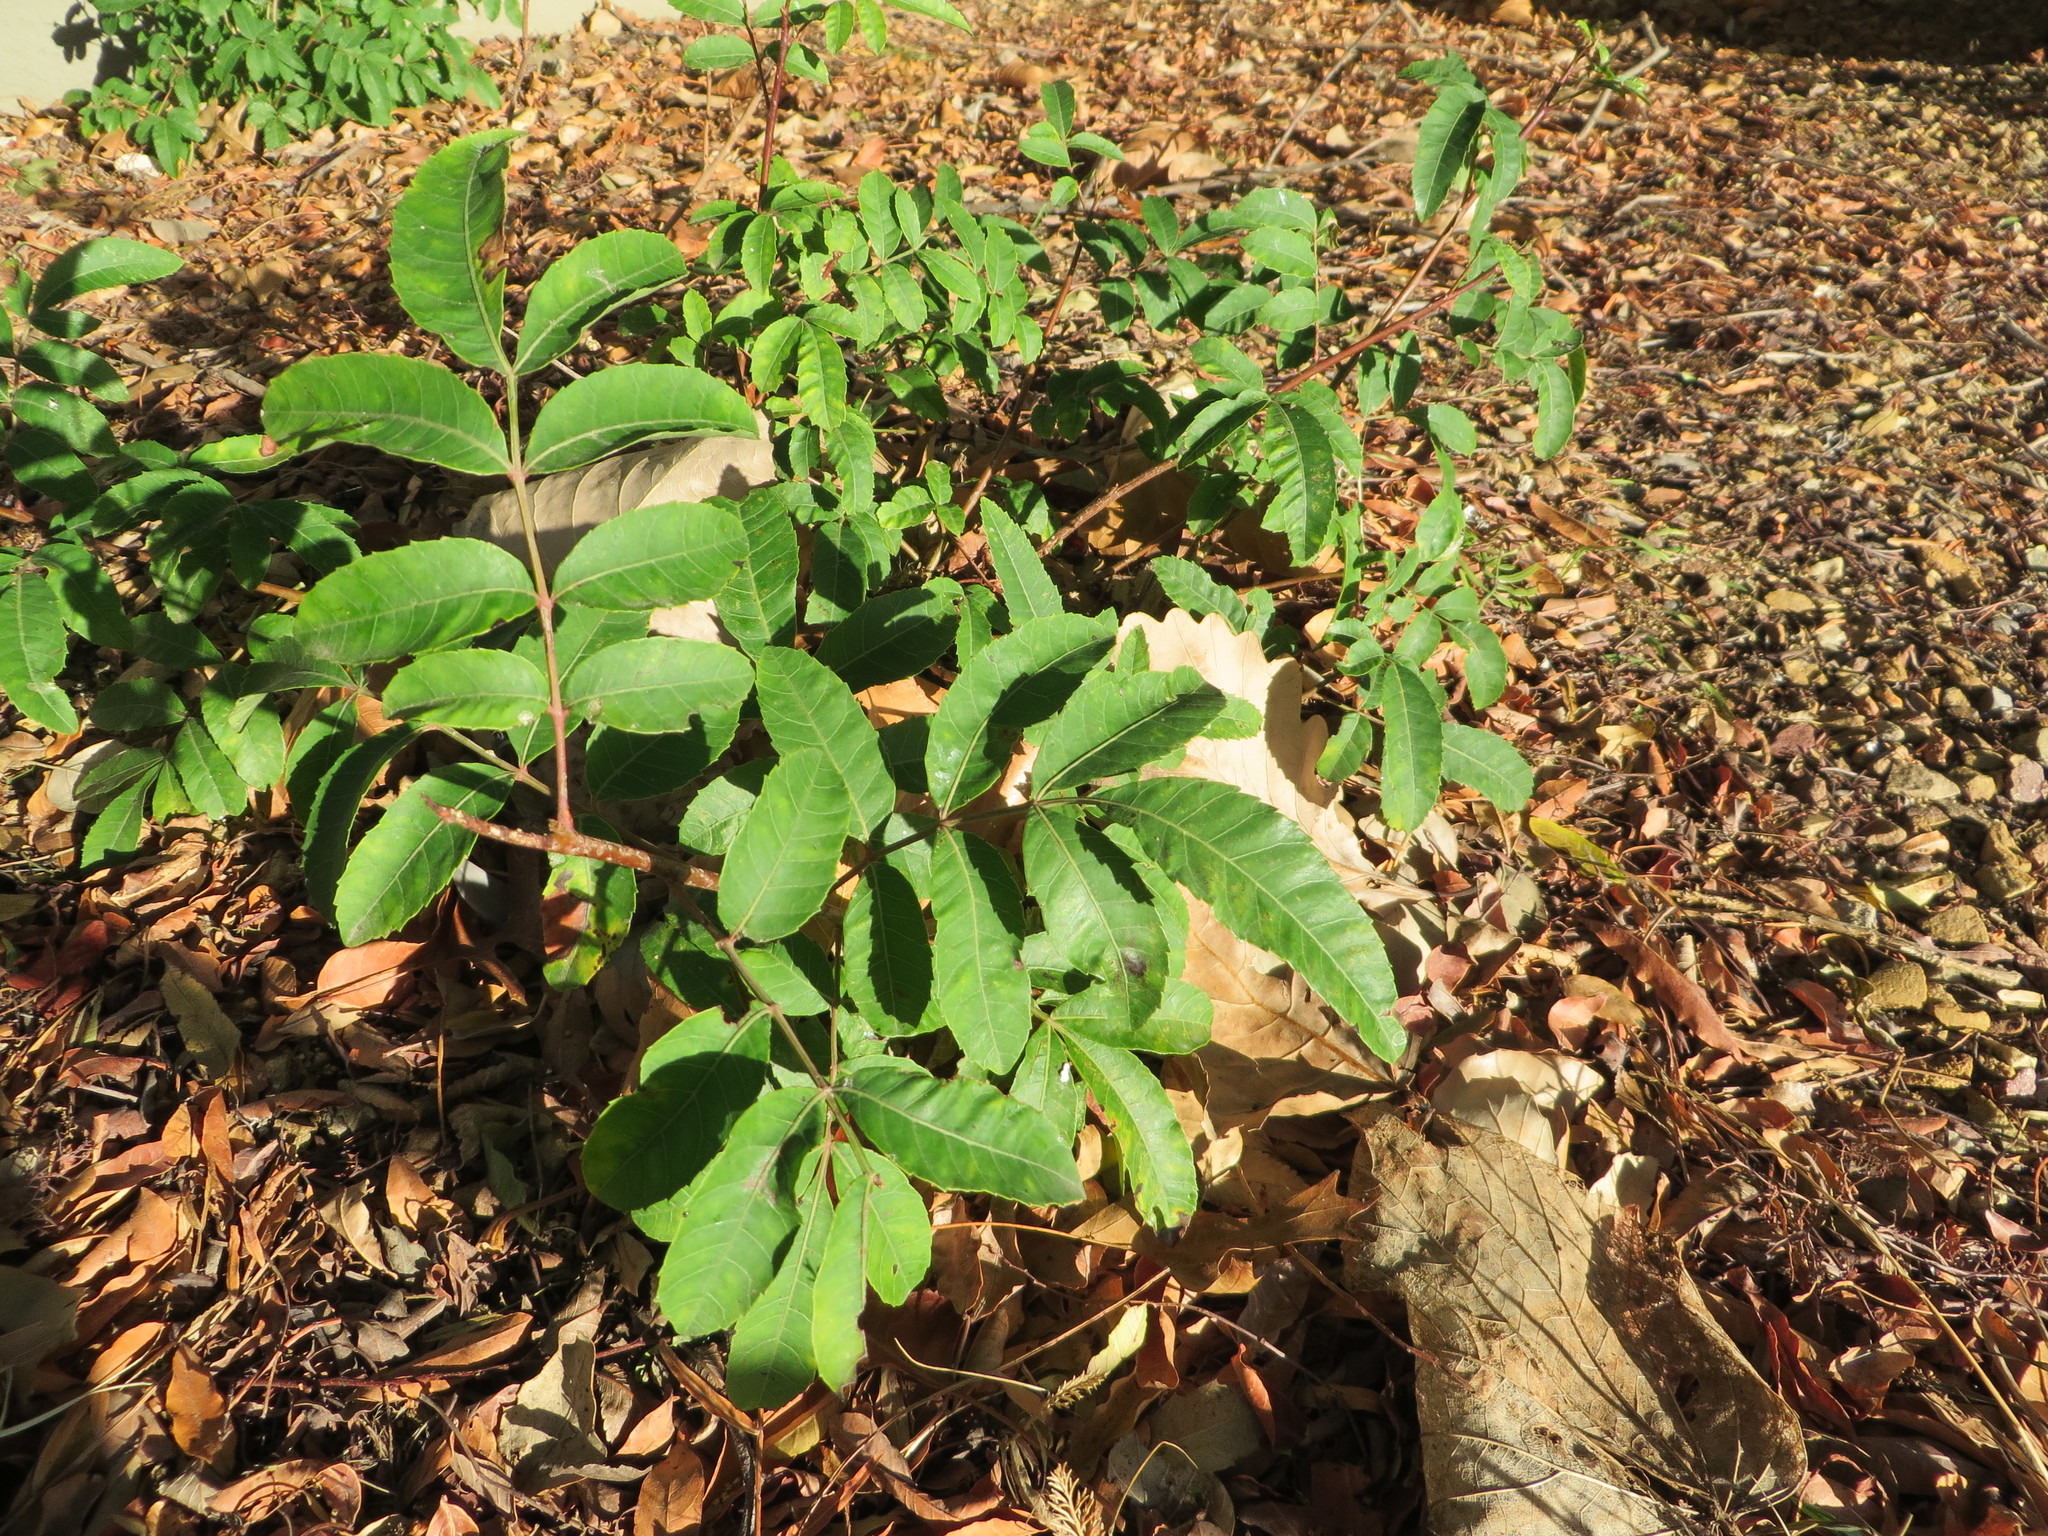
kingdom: Plantae
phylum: Tracheophyta
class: Magnoliopsida
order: Sapindales
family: Anacardiaceae
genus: Schinus
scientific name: Schinus terebinthifolia
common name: Brazilian peppertree
